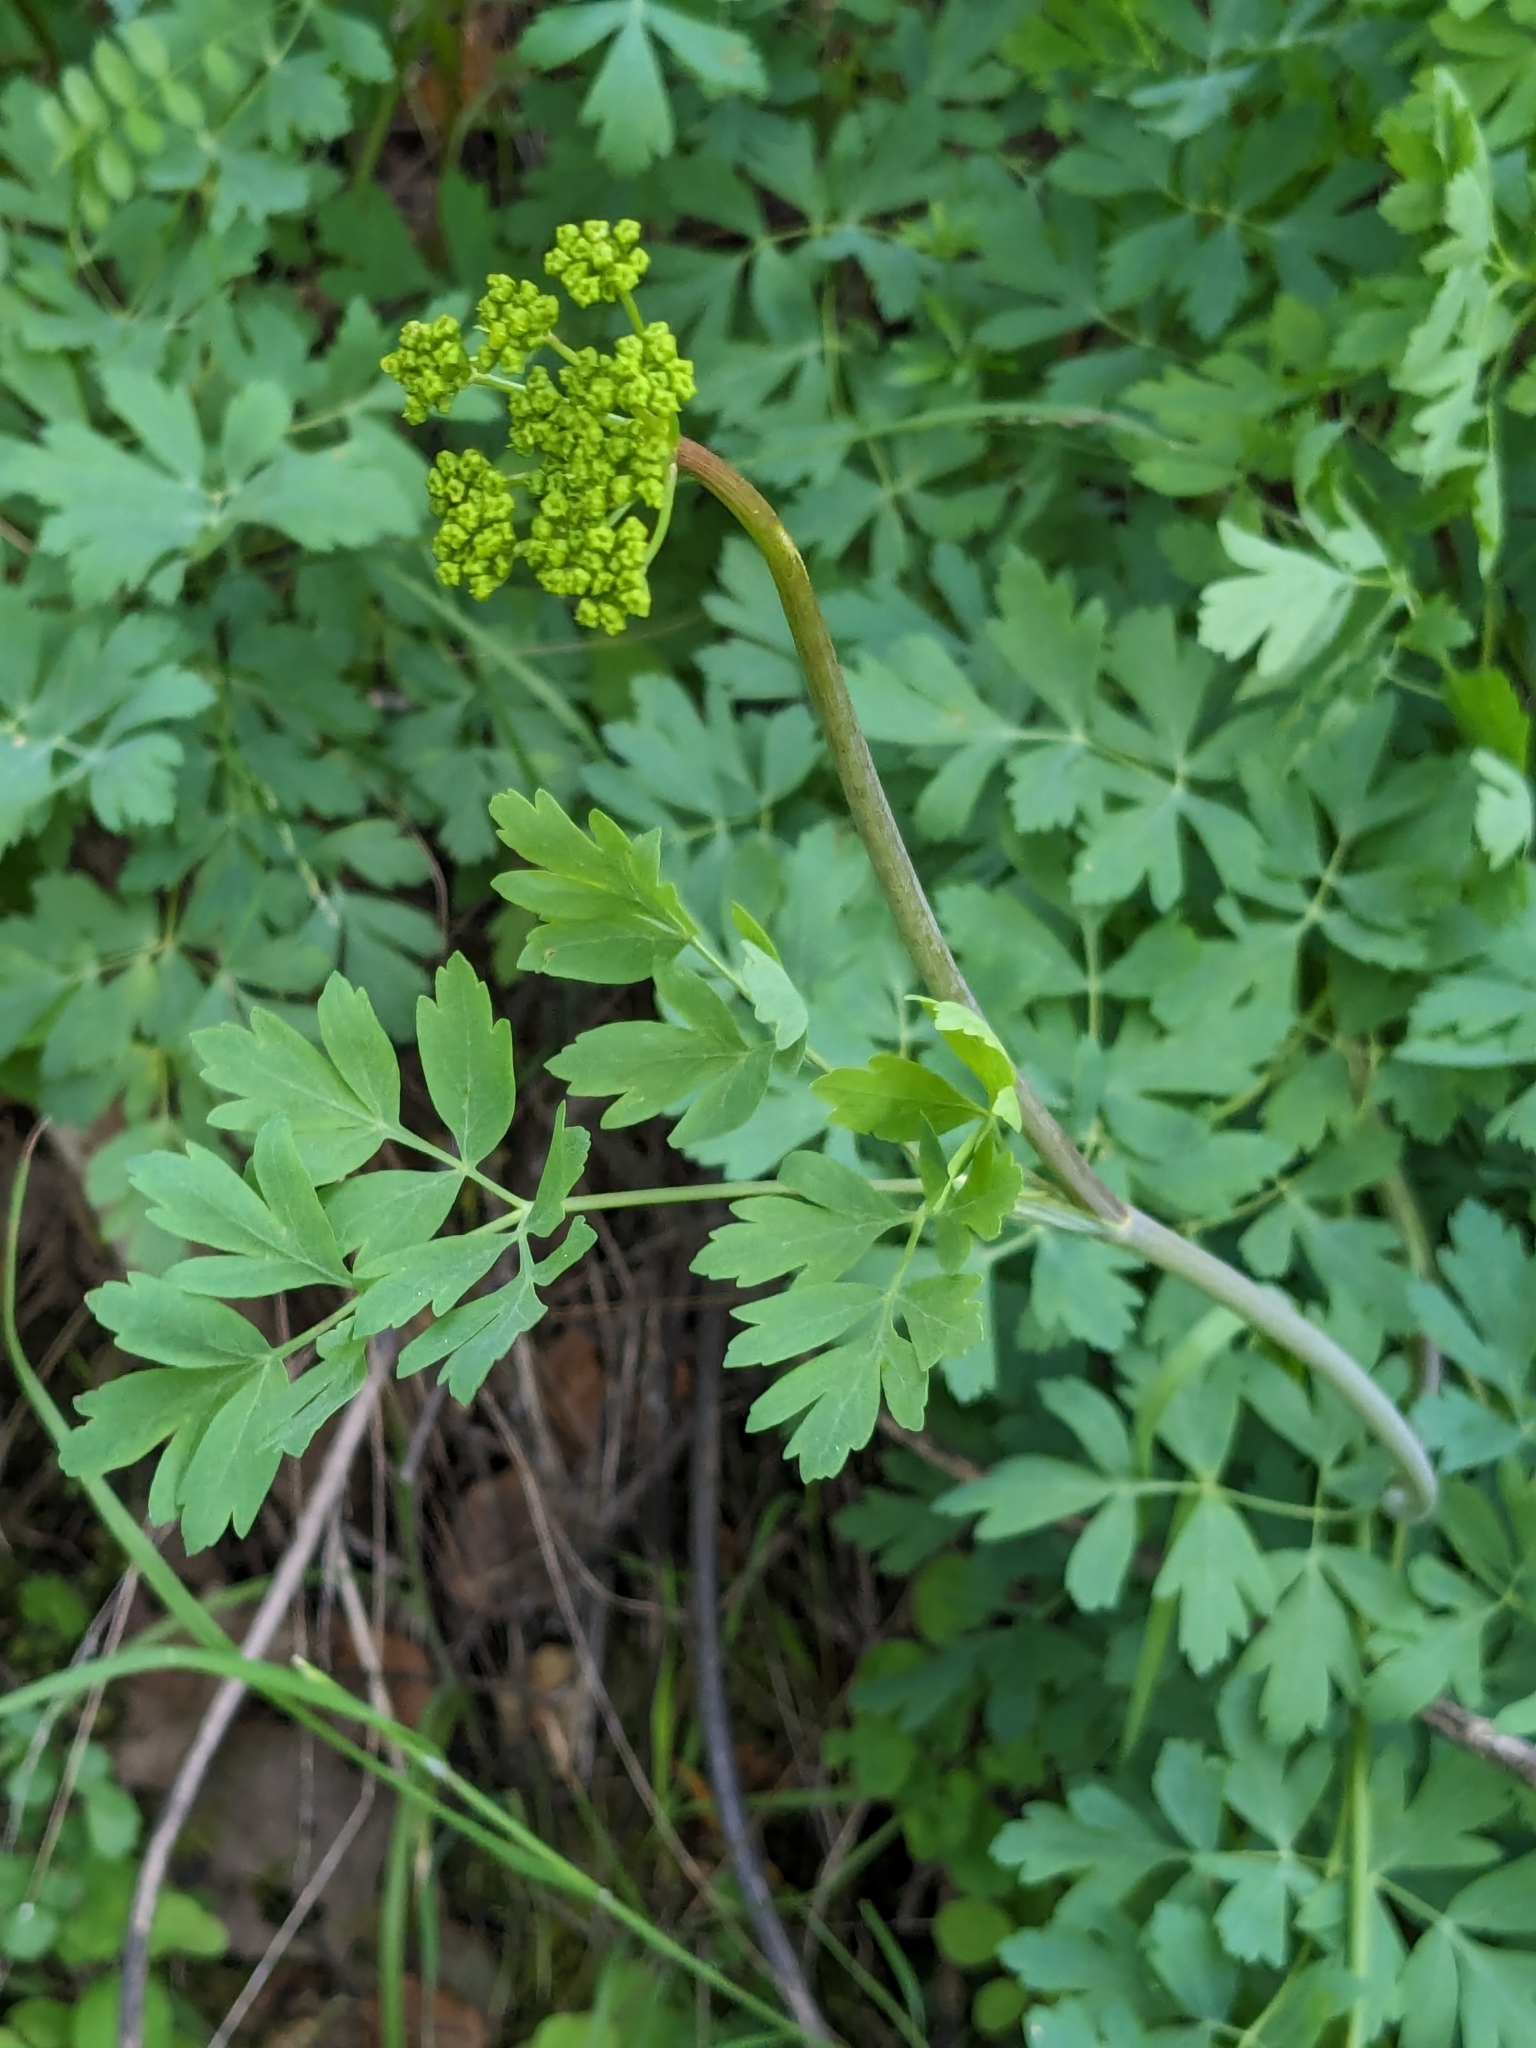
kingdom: Plantae
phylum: Tracheophyta
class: Magnoliopsida
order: Apiales
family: Apiaceae
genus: Lomatium
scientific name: Lomatium californicum
